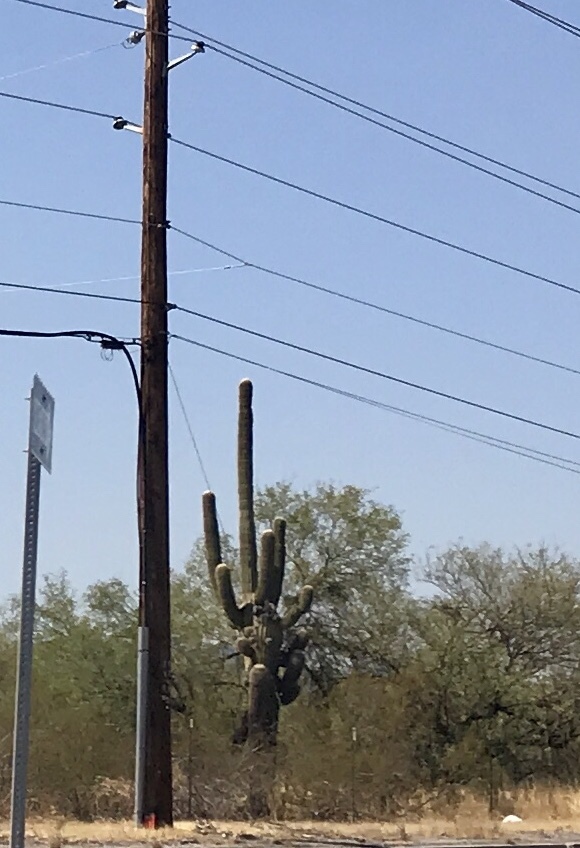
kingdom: Plantae
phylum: Tracheophyta
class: Magnoliopsida
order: Caryophyllales
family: Cactaceae
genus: Carnegiea
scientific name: Carnegiea gigantea
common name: Saguaro
